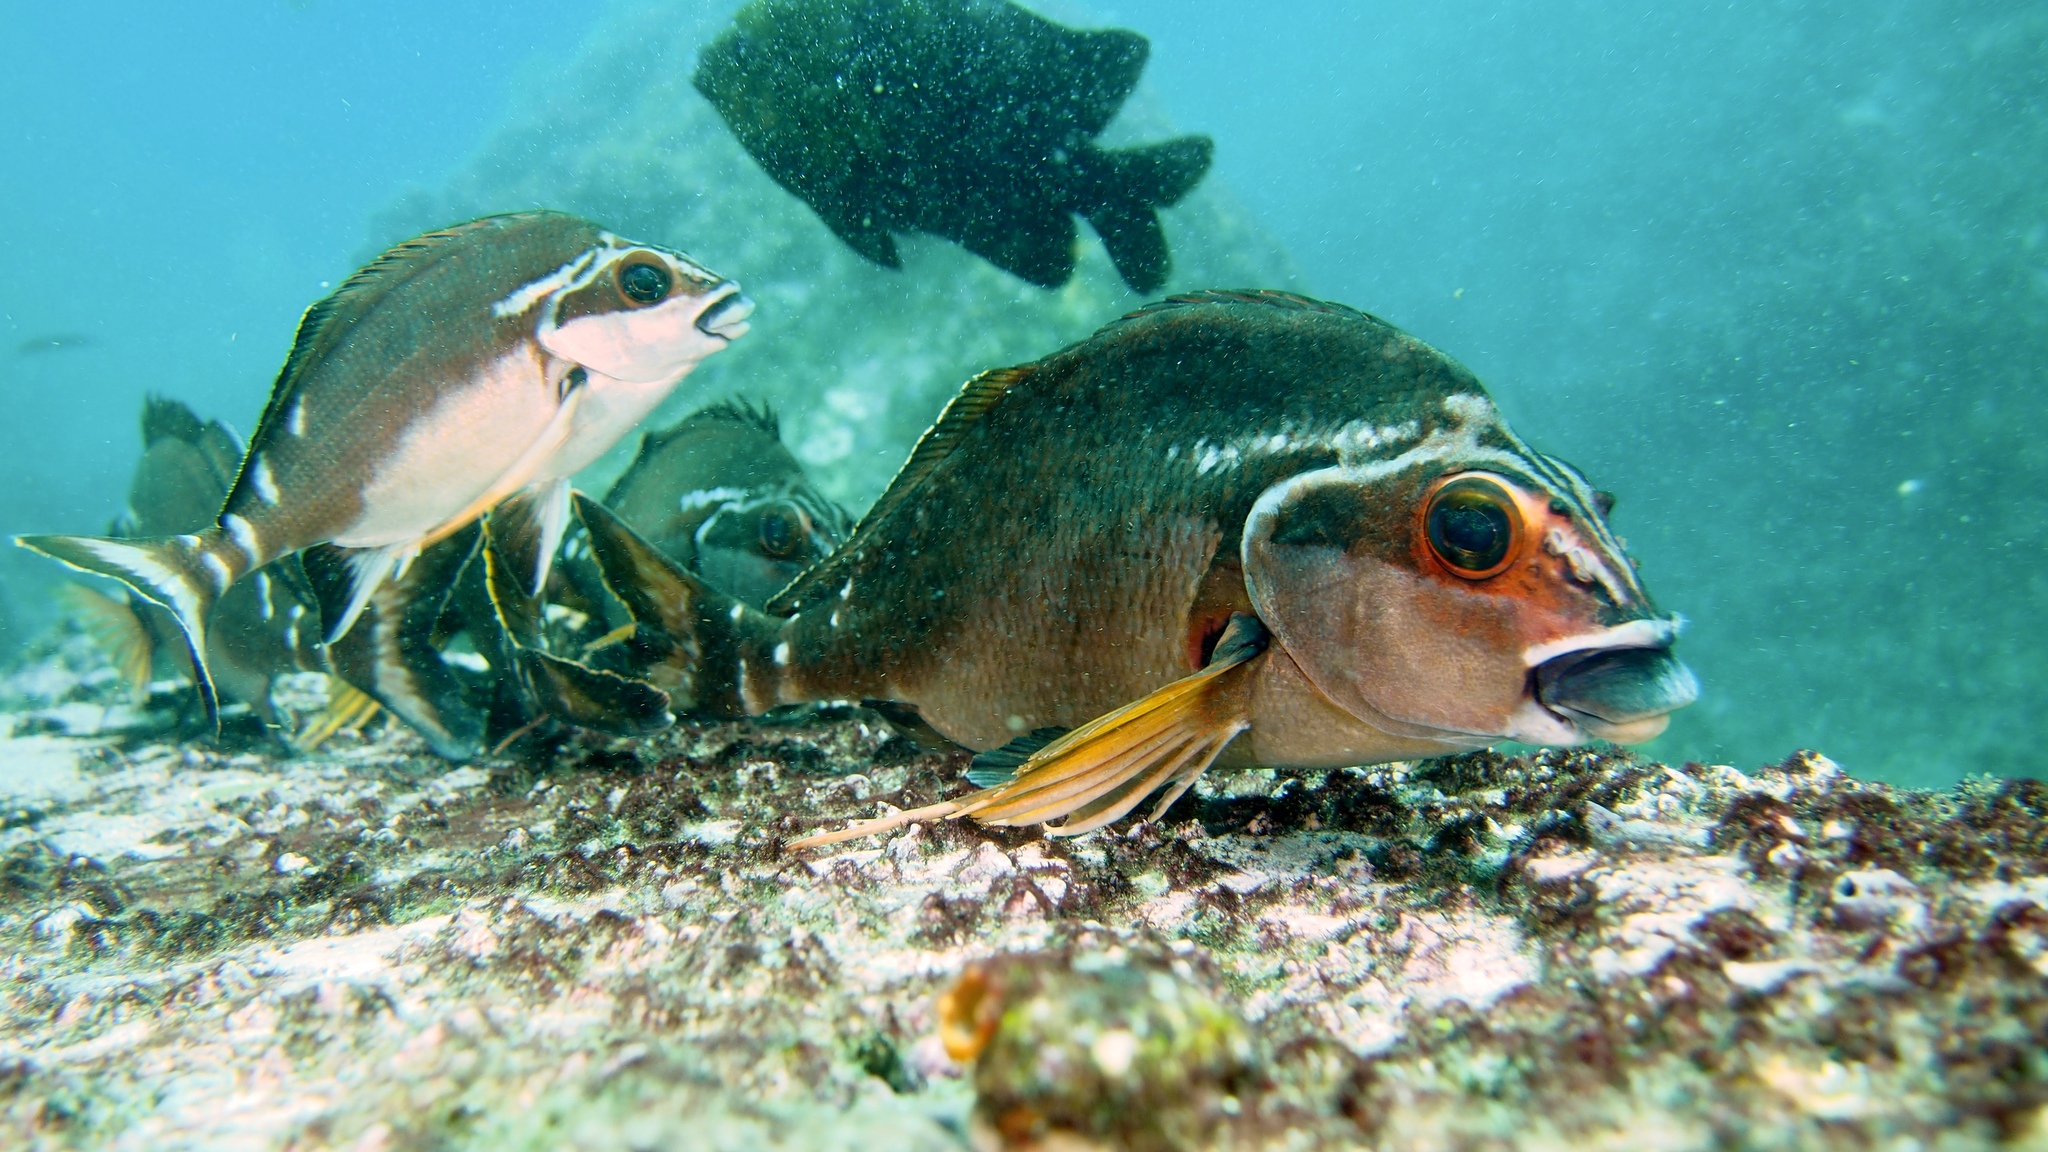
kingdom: Animalia
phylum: Chordata
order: Perciformes
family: Latridae
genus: Morwong
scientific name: Morwong fuscus
